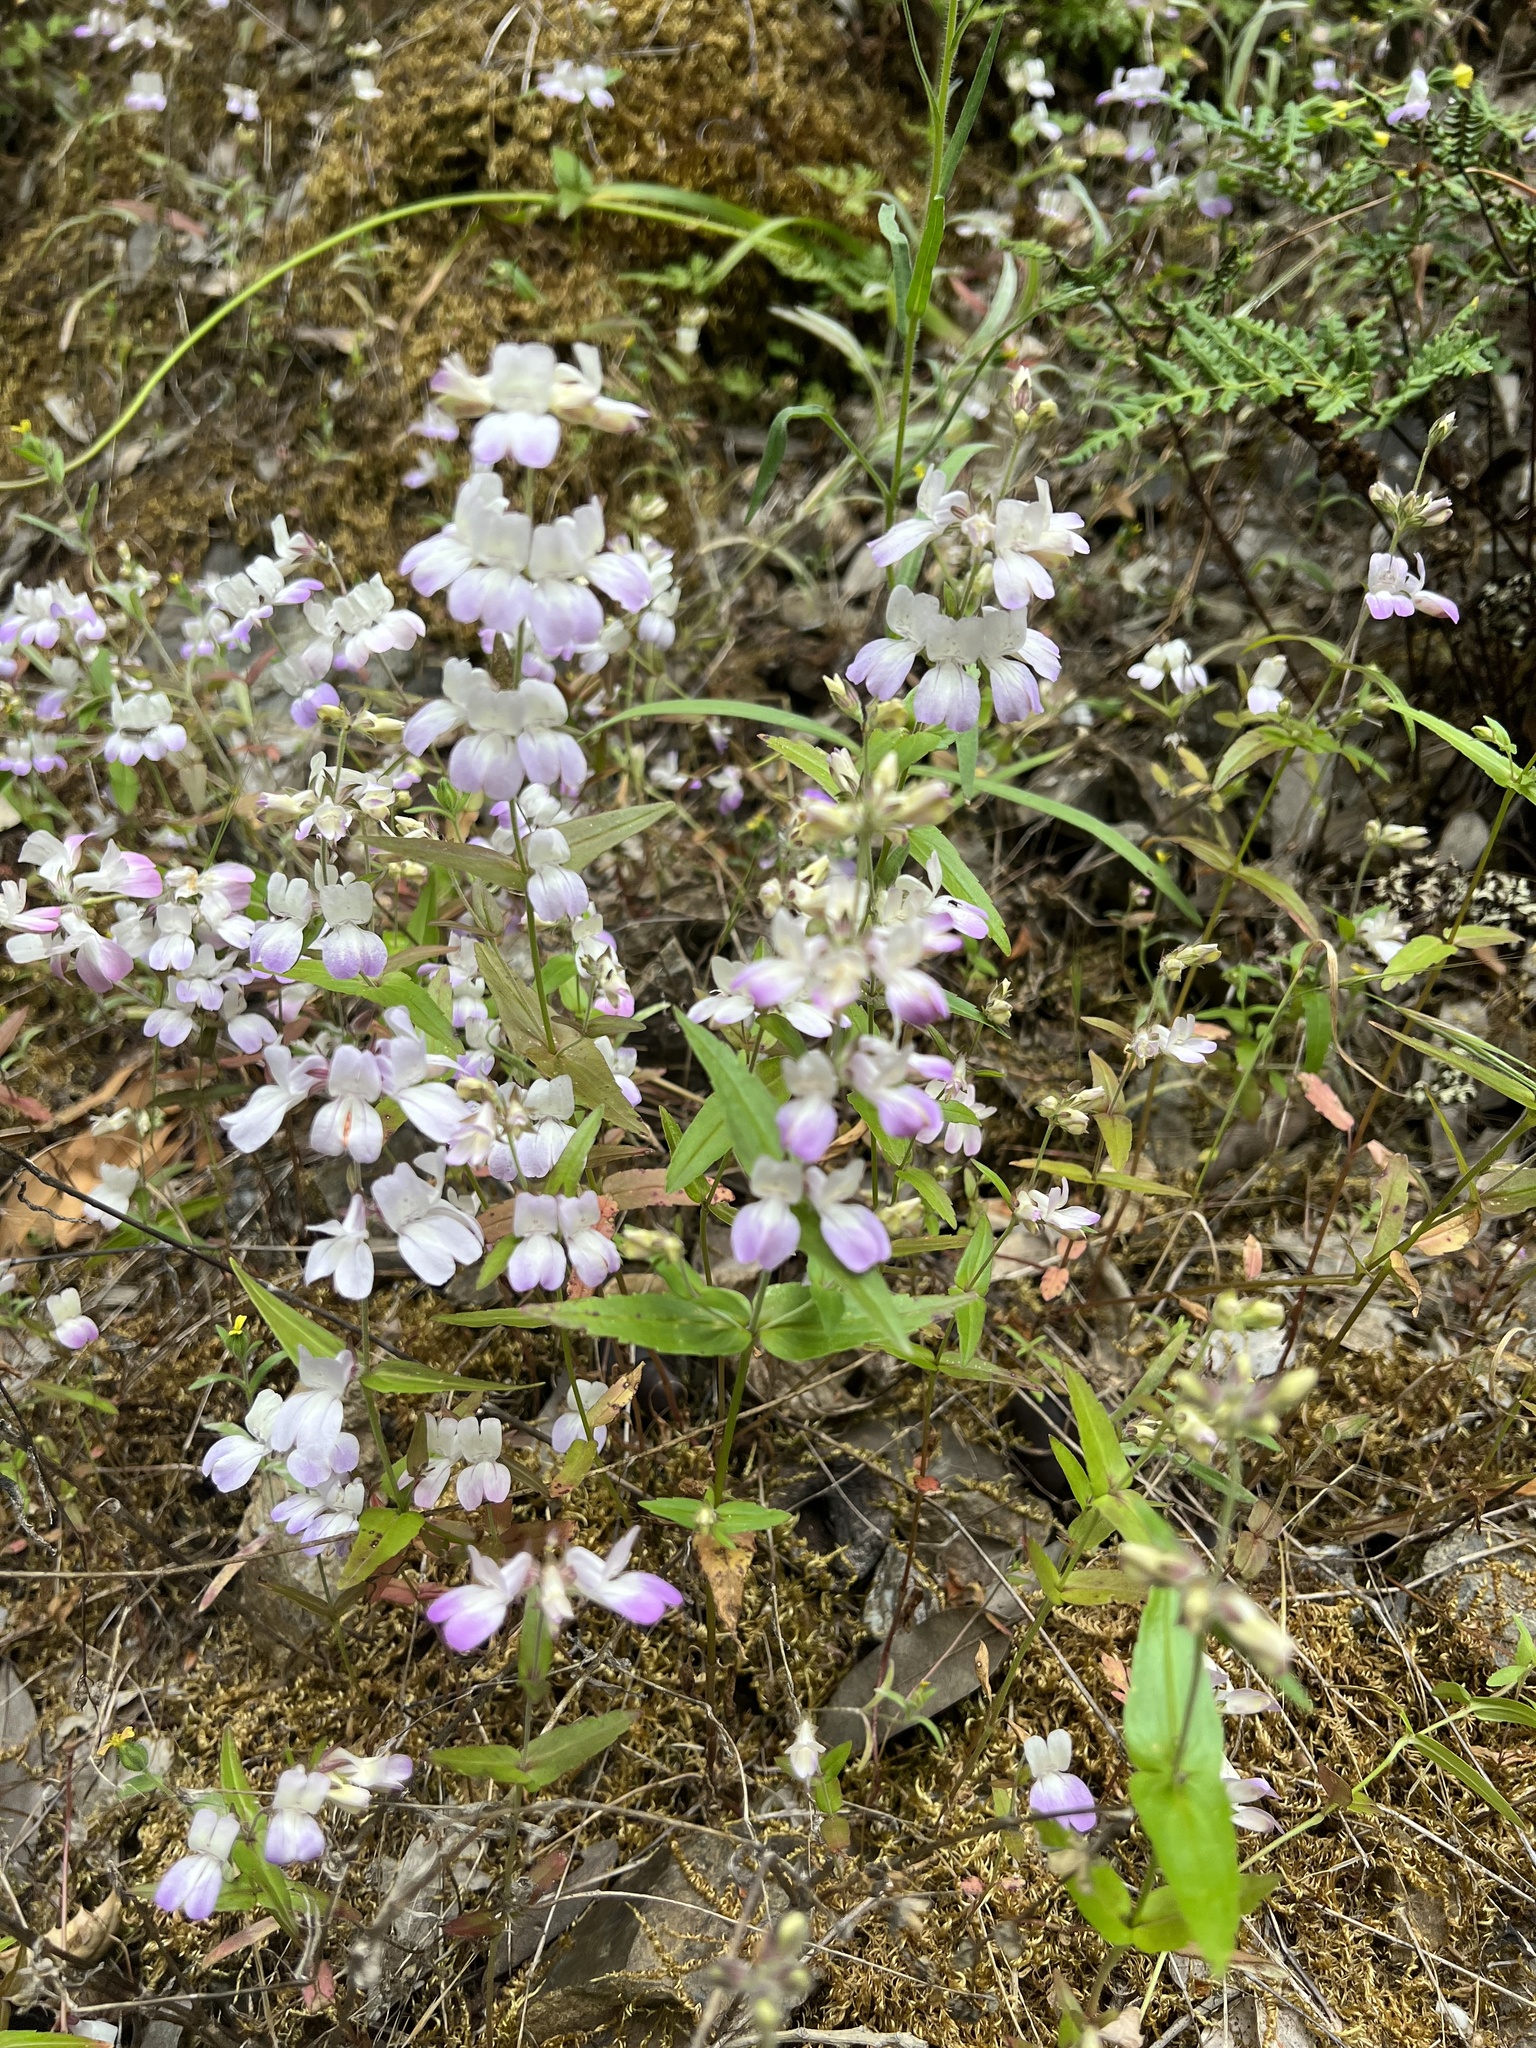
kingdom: Plantae
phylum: Tracheophyta
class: Magnoliopsida
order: Lamiales
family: Plantaginaceae
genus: Collinsia
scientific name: Collinsia heterophylla
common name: Chinese-houses
